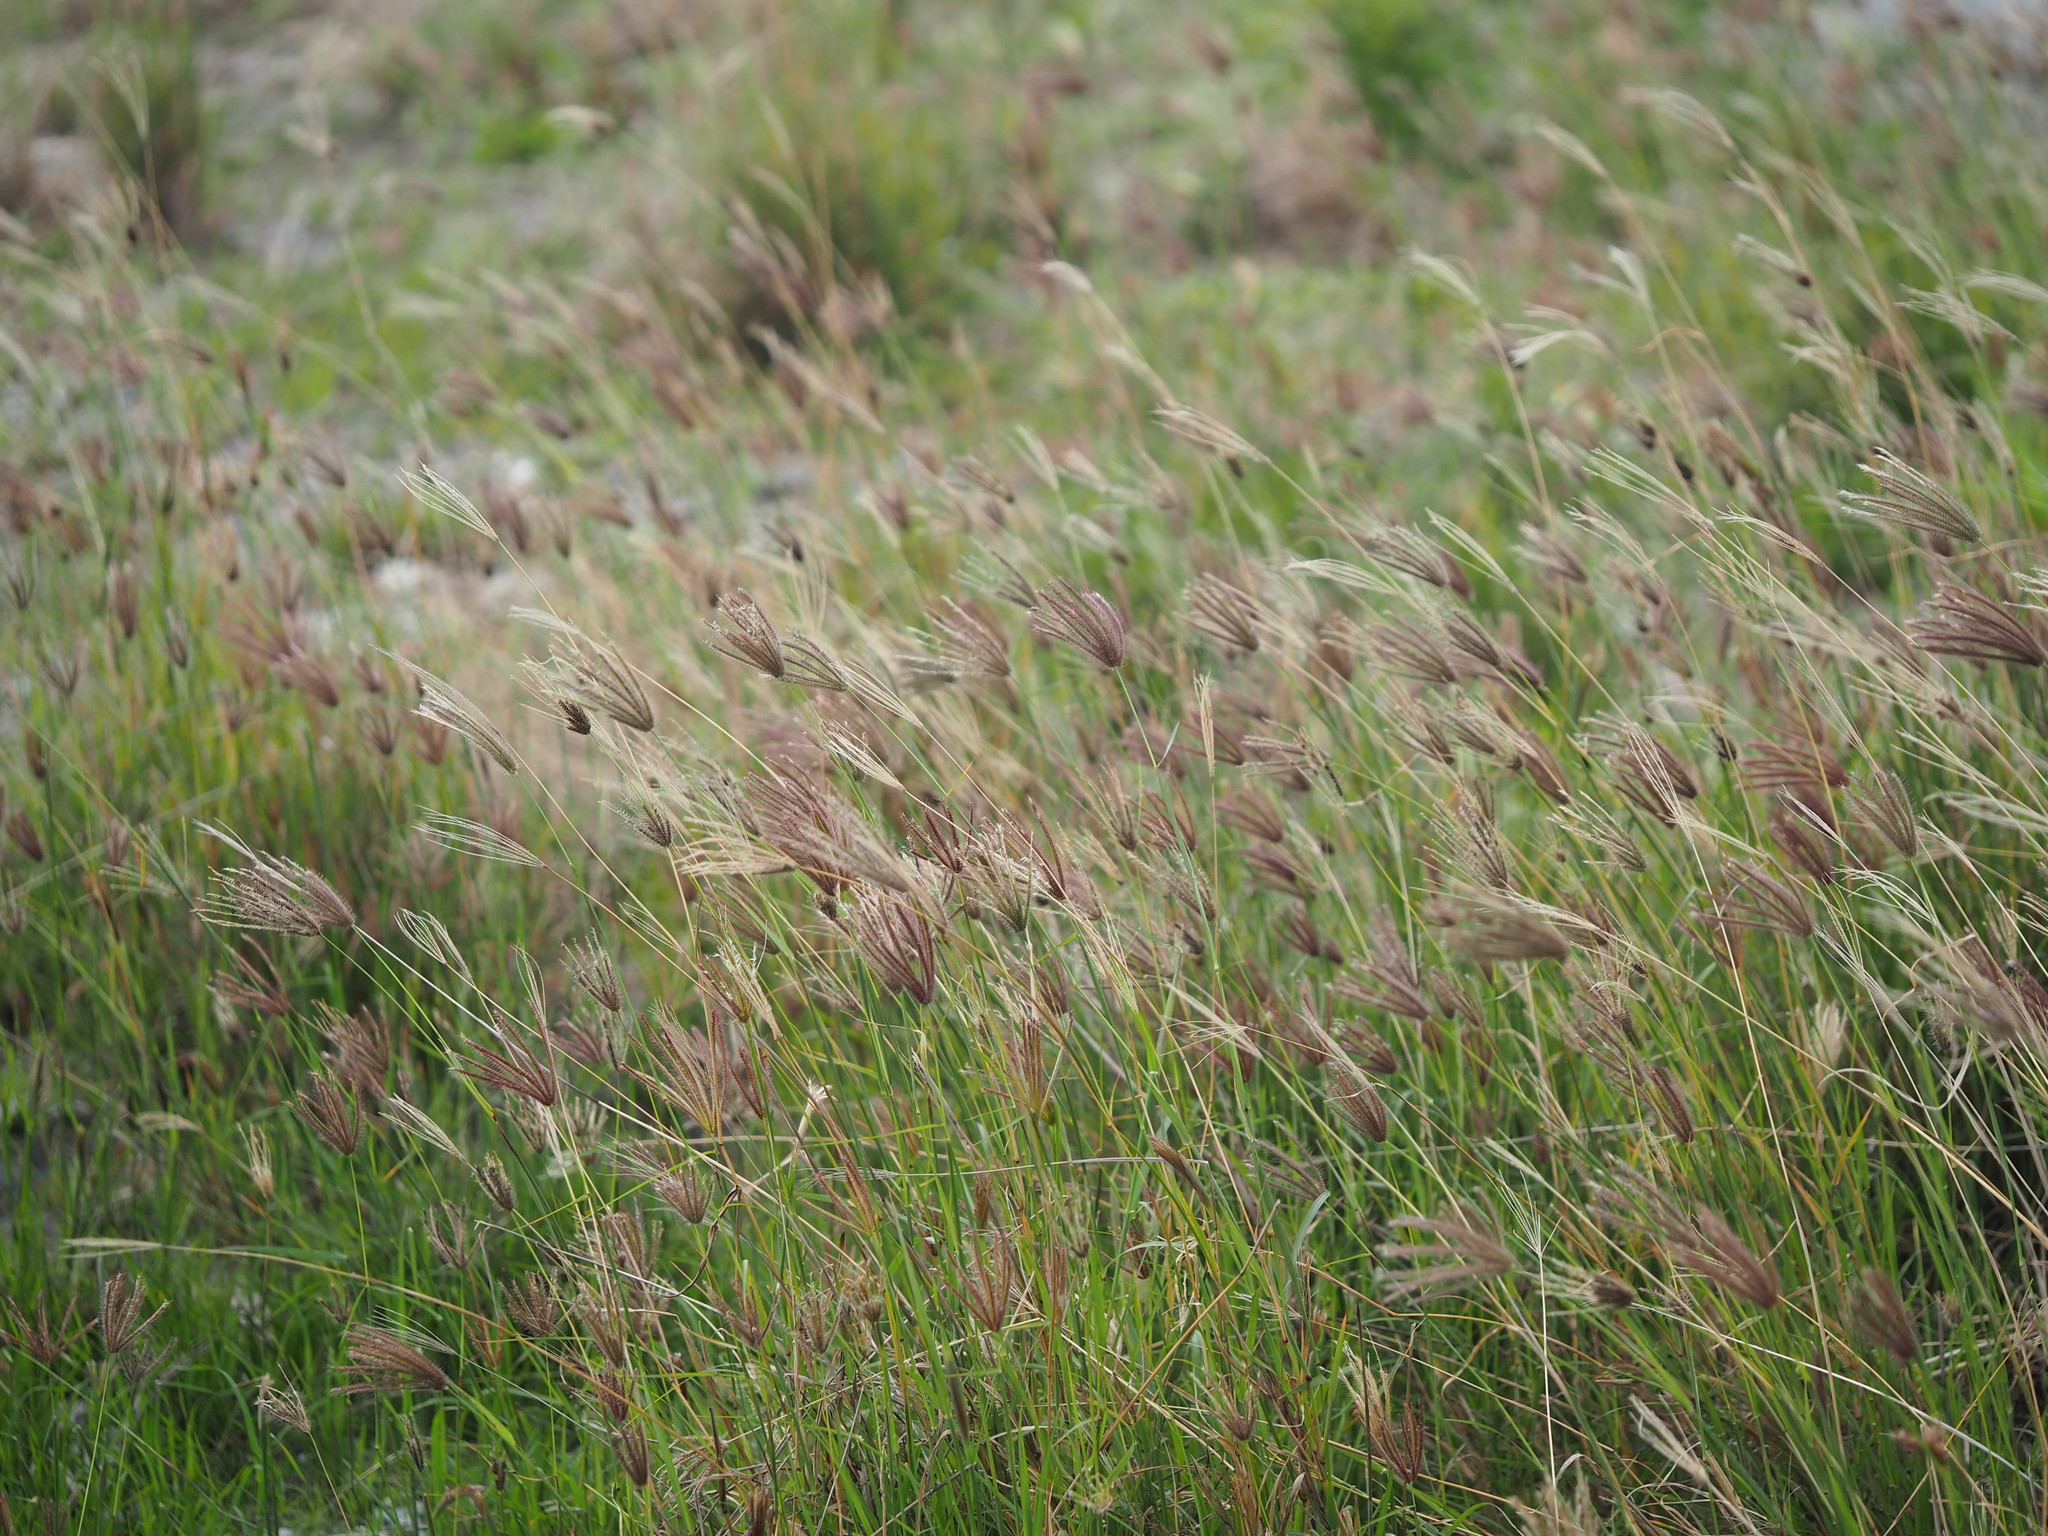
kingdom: Plantae
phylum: Tracheophyta
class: Liliopsida
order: Poales
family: Poaceae
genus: Chloris
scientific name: Chloris barbata
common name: Swollen fingergrass
